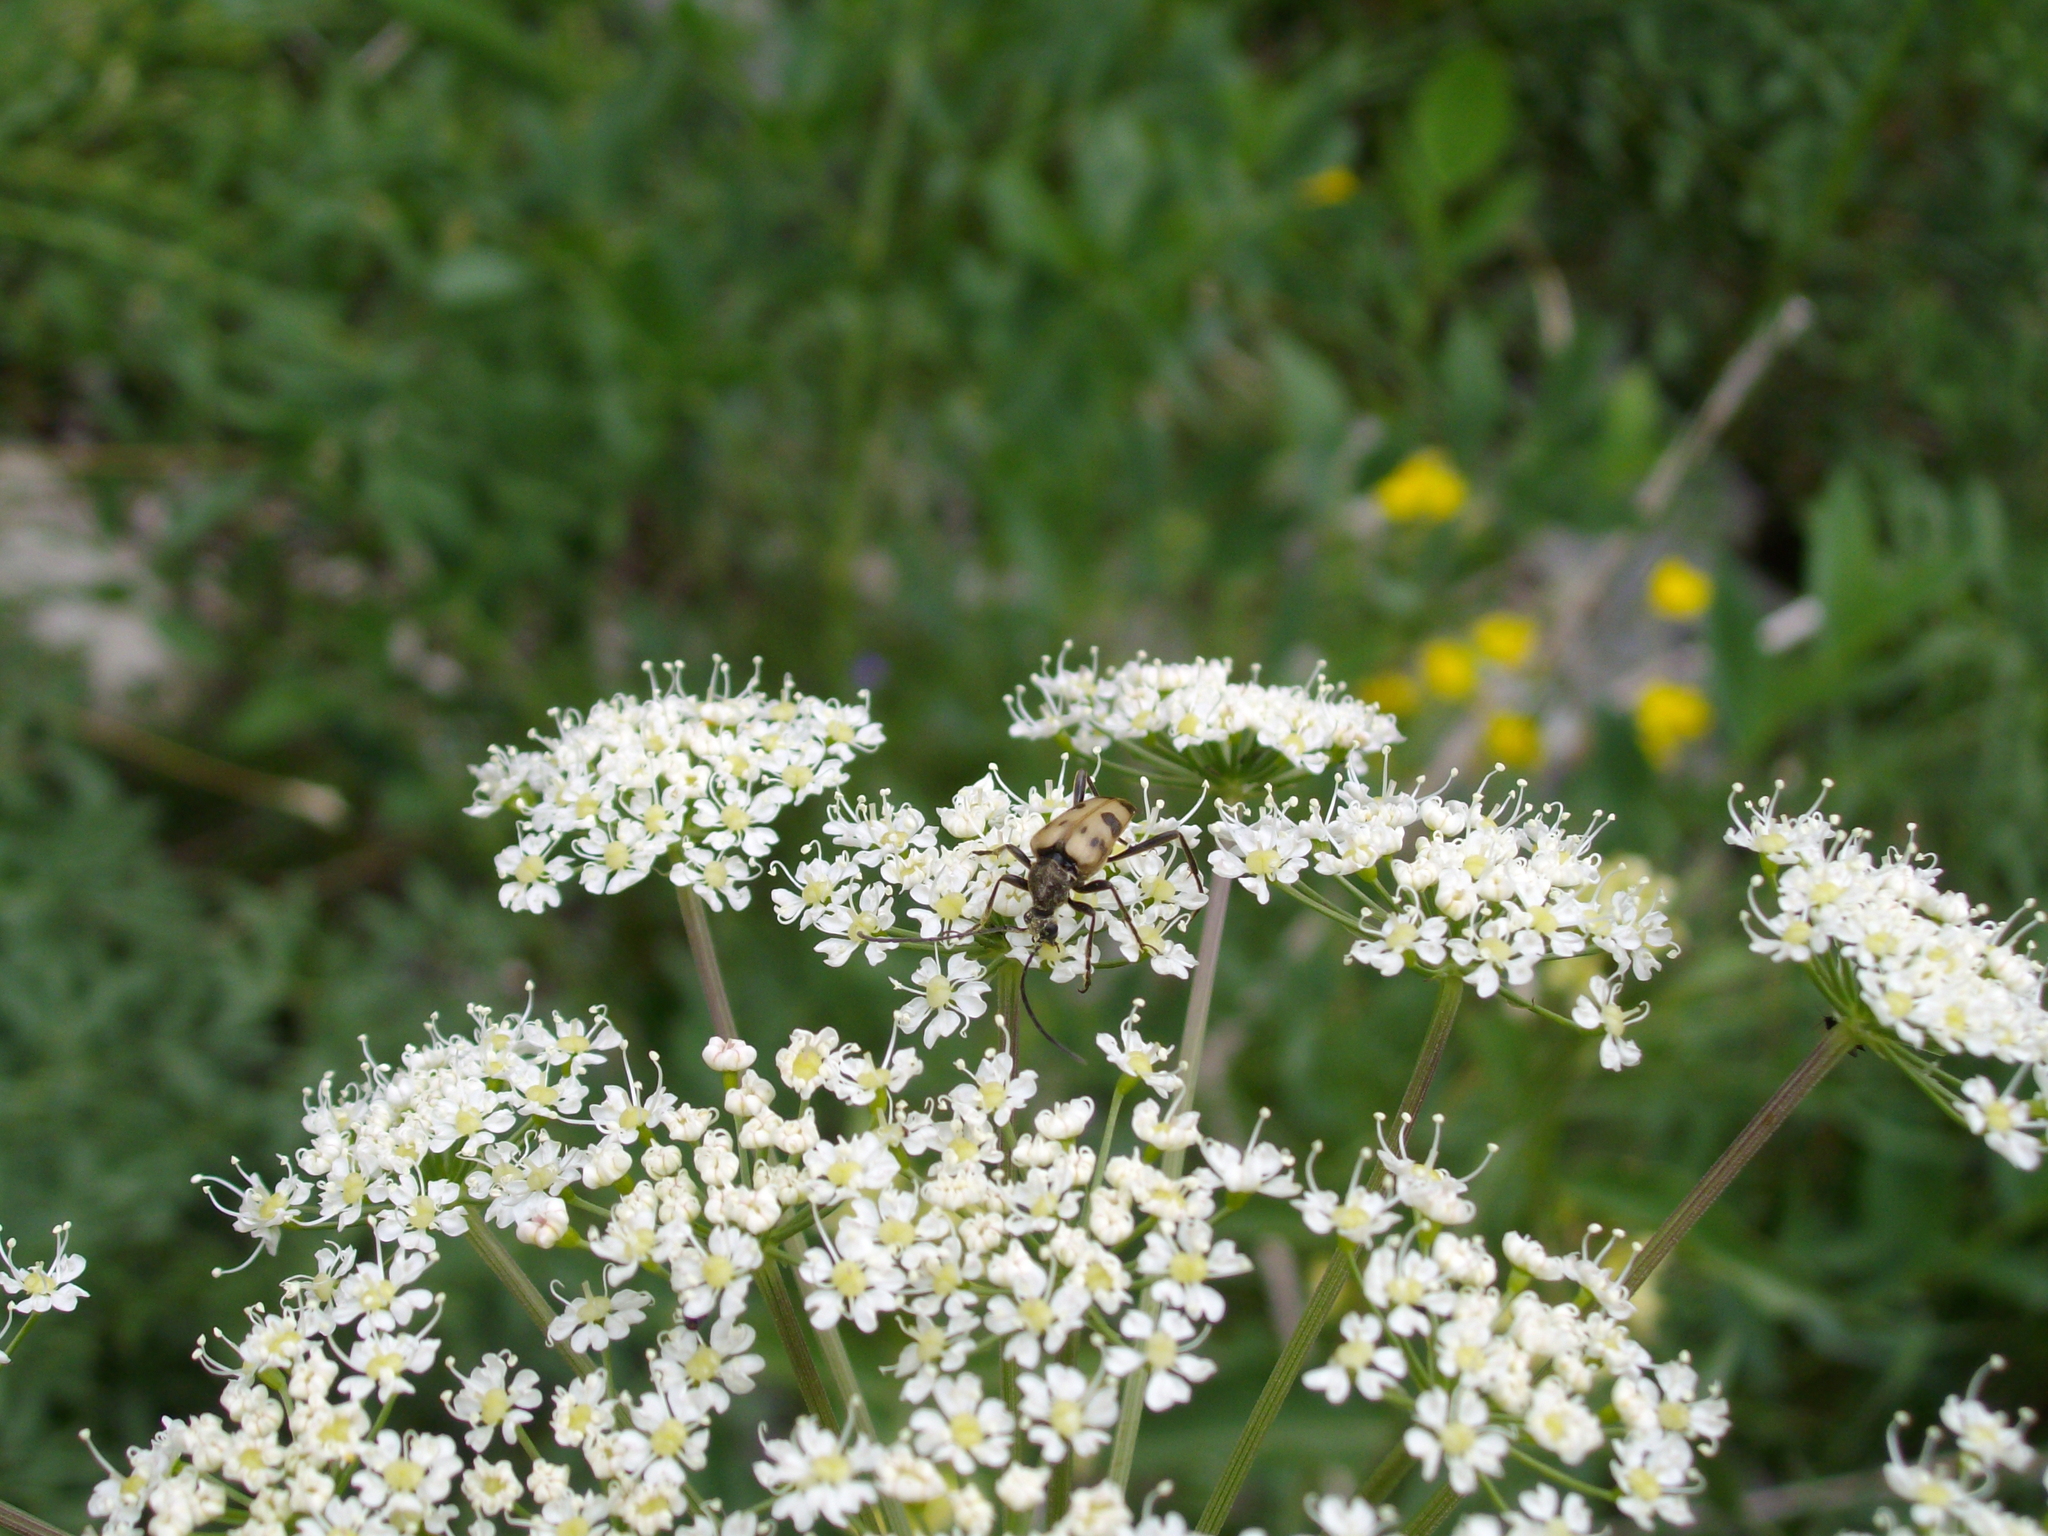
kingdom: Animalia
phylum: Arthropoda
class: Insecta
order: Coleoptera
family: Cerambycidae
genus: Pachytodes
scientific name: Pachytodes cerambyciformis
